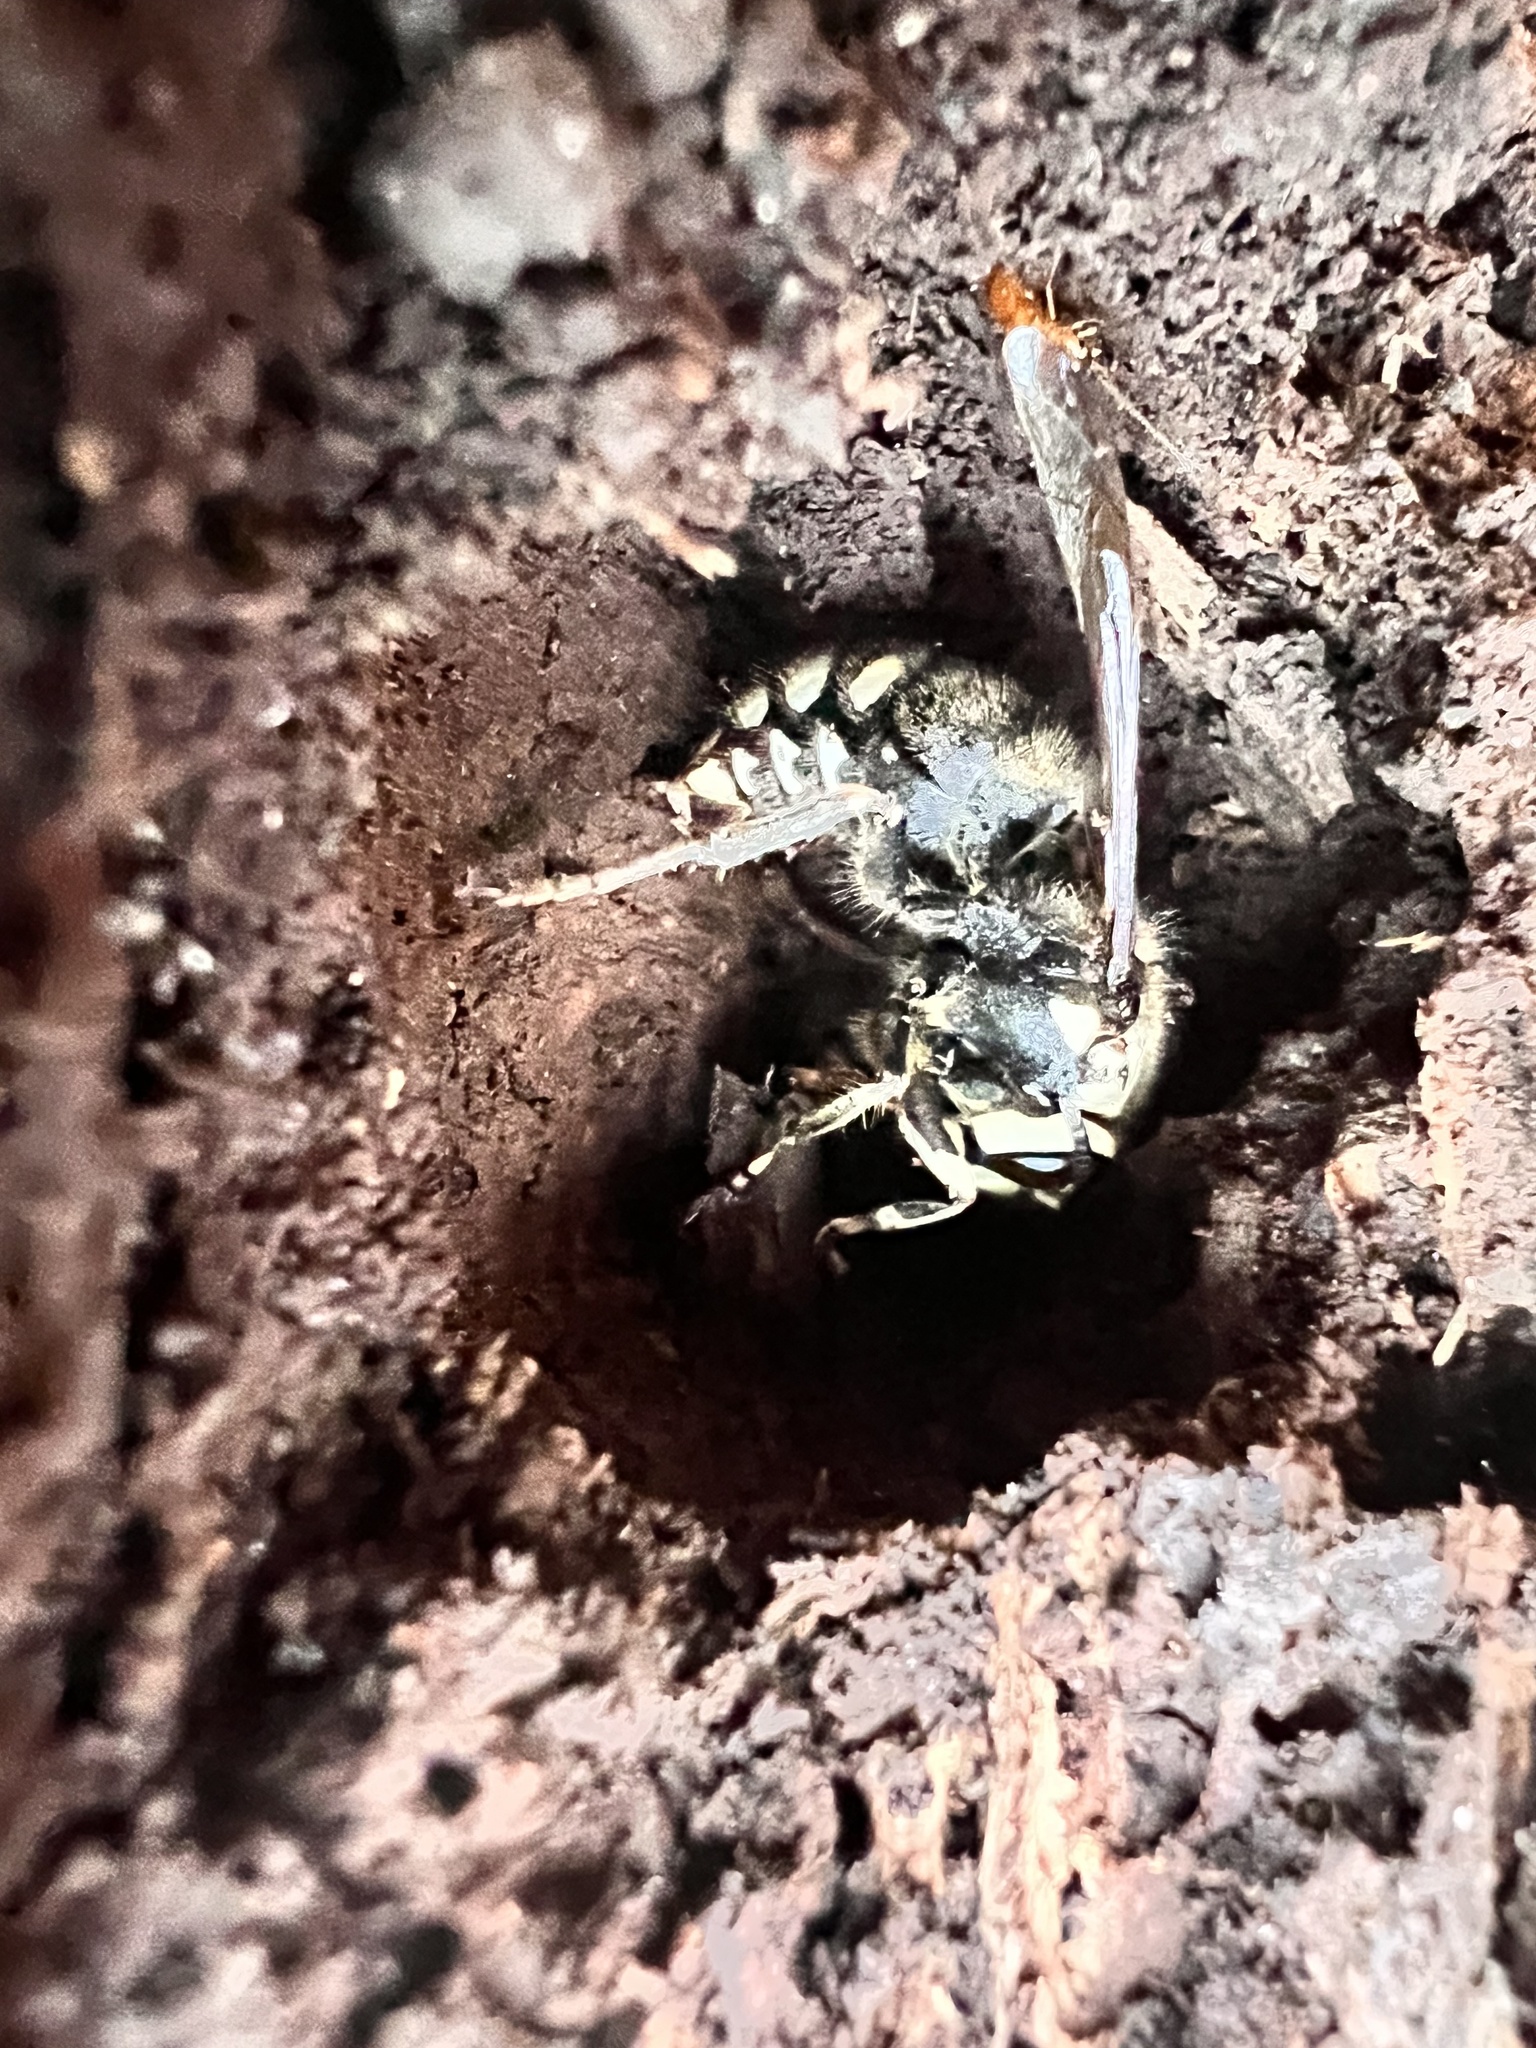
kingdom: Animalia
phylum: Arthropoda
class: Insecta
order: Hymenoptera
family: Vespidae
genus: Dolichovespula
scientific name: Dolichovespula maculata
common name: Bald-faced hornet
